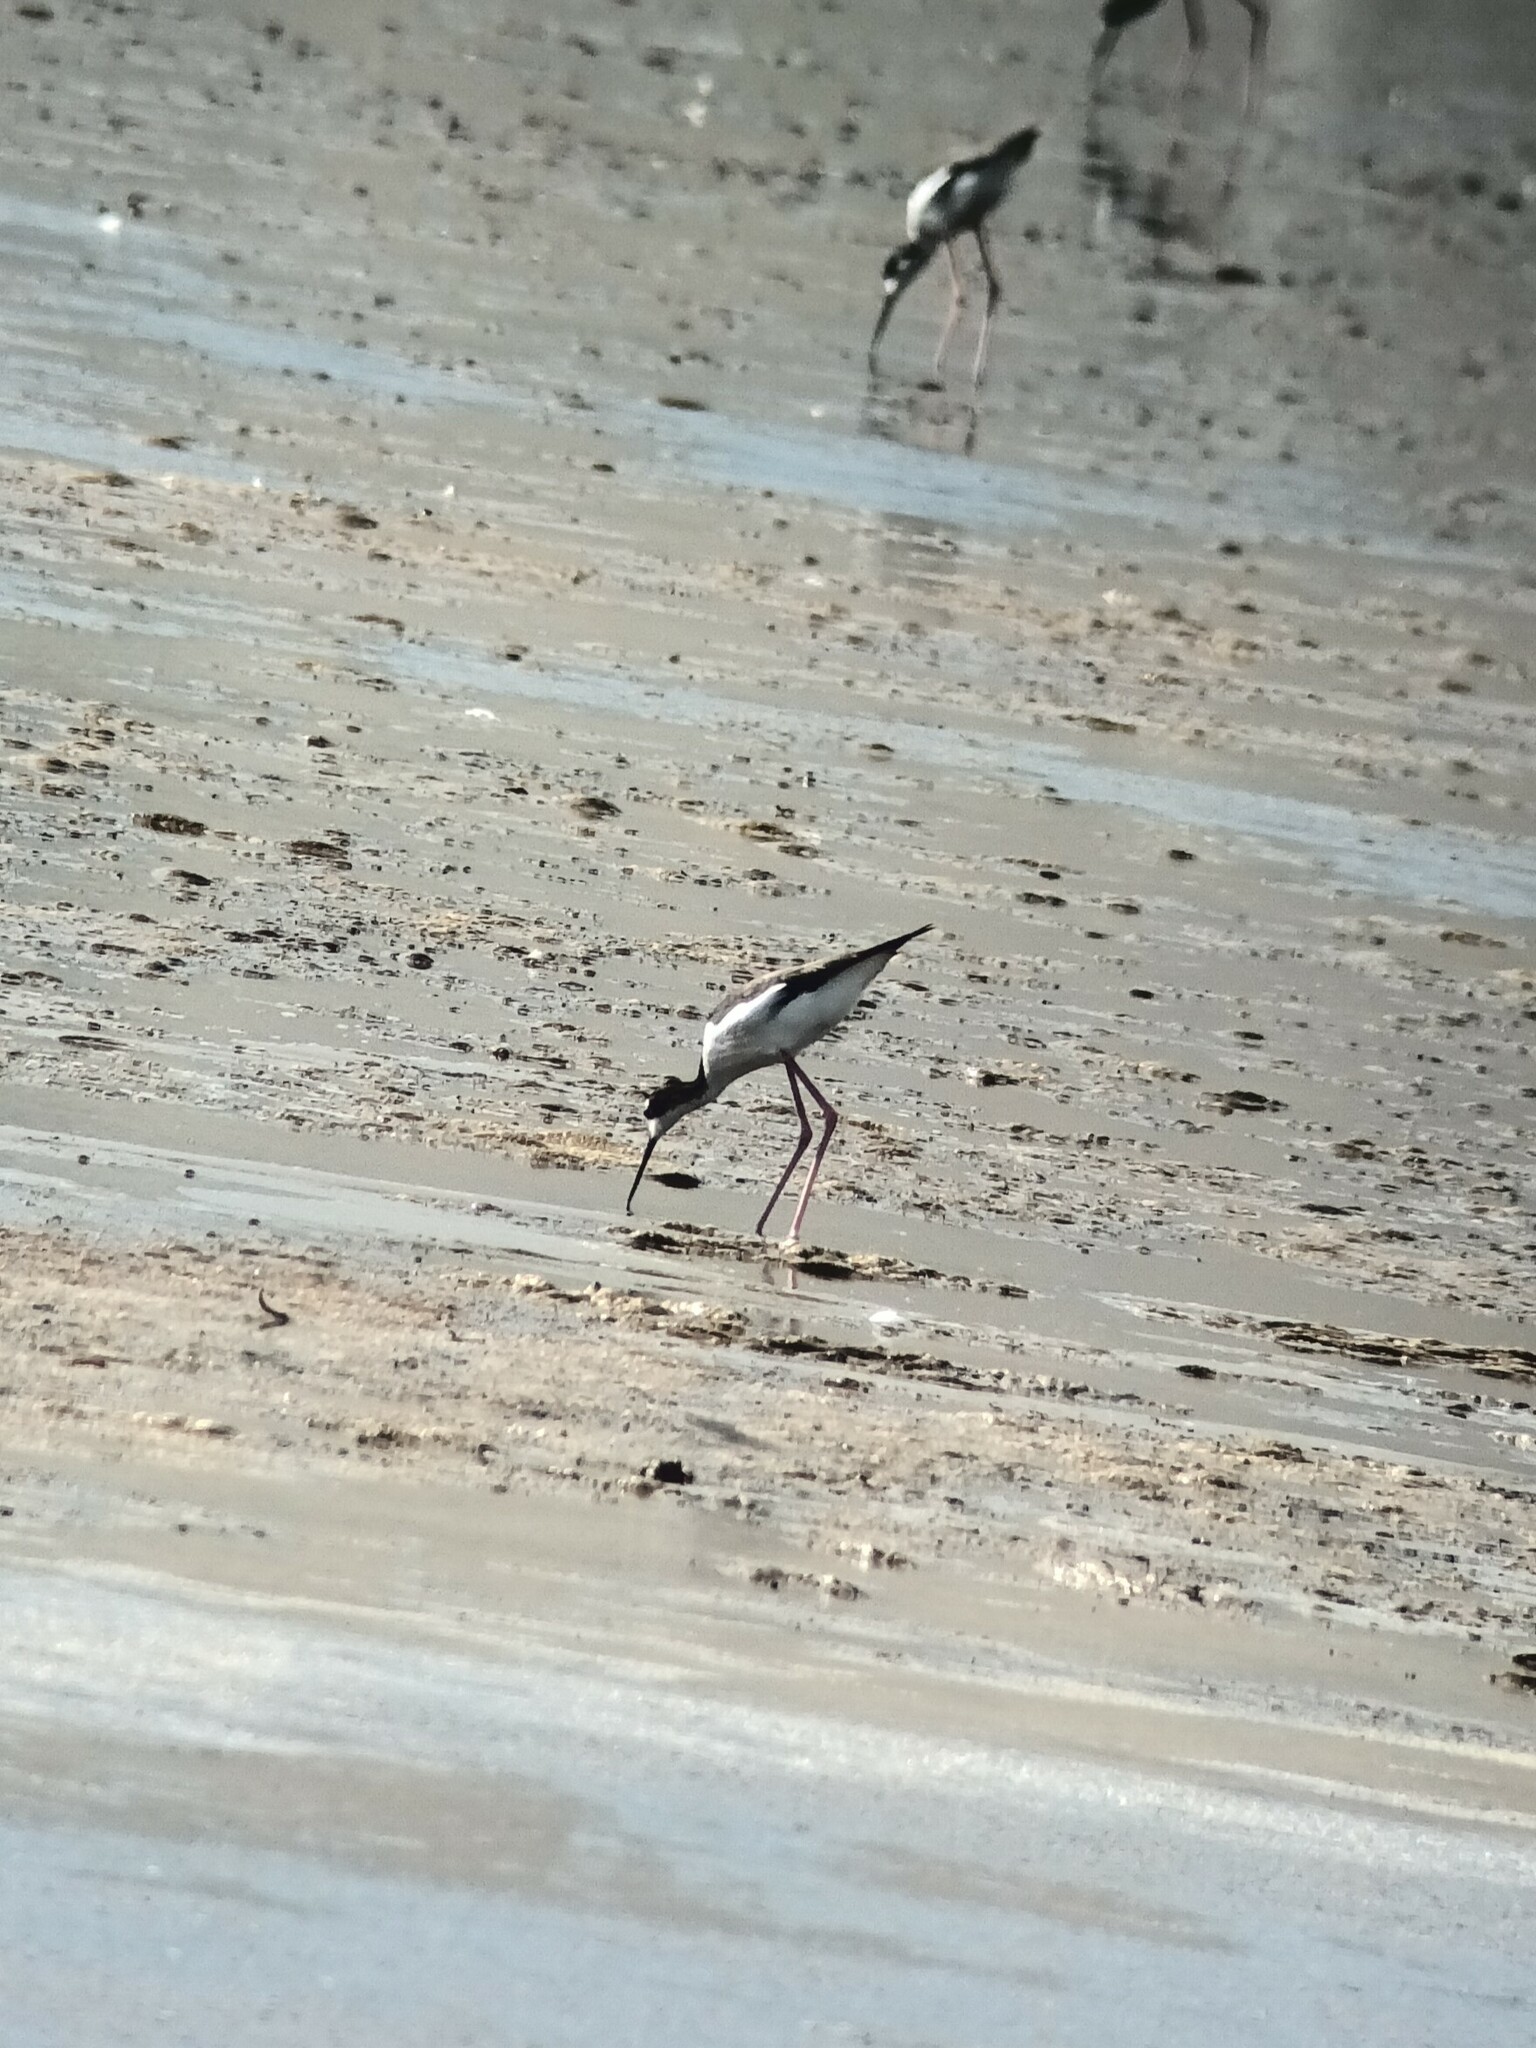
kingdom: Animalia
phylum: Chordata
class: Aves
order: Charadriiformes
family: Recurvirostridae
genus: Himantopus
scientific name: Himantopus mexicanus
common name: Black-necked stilt
